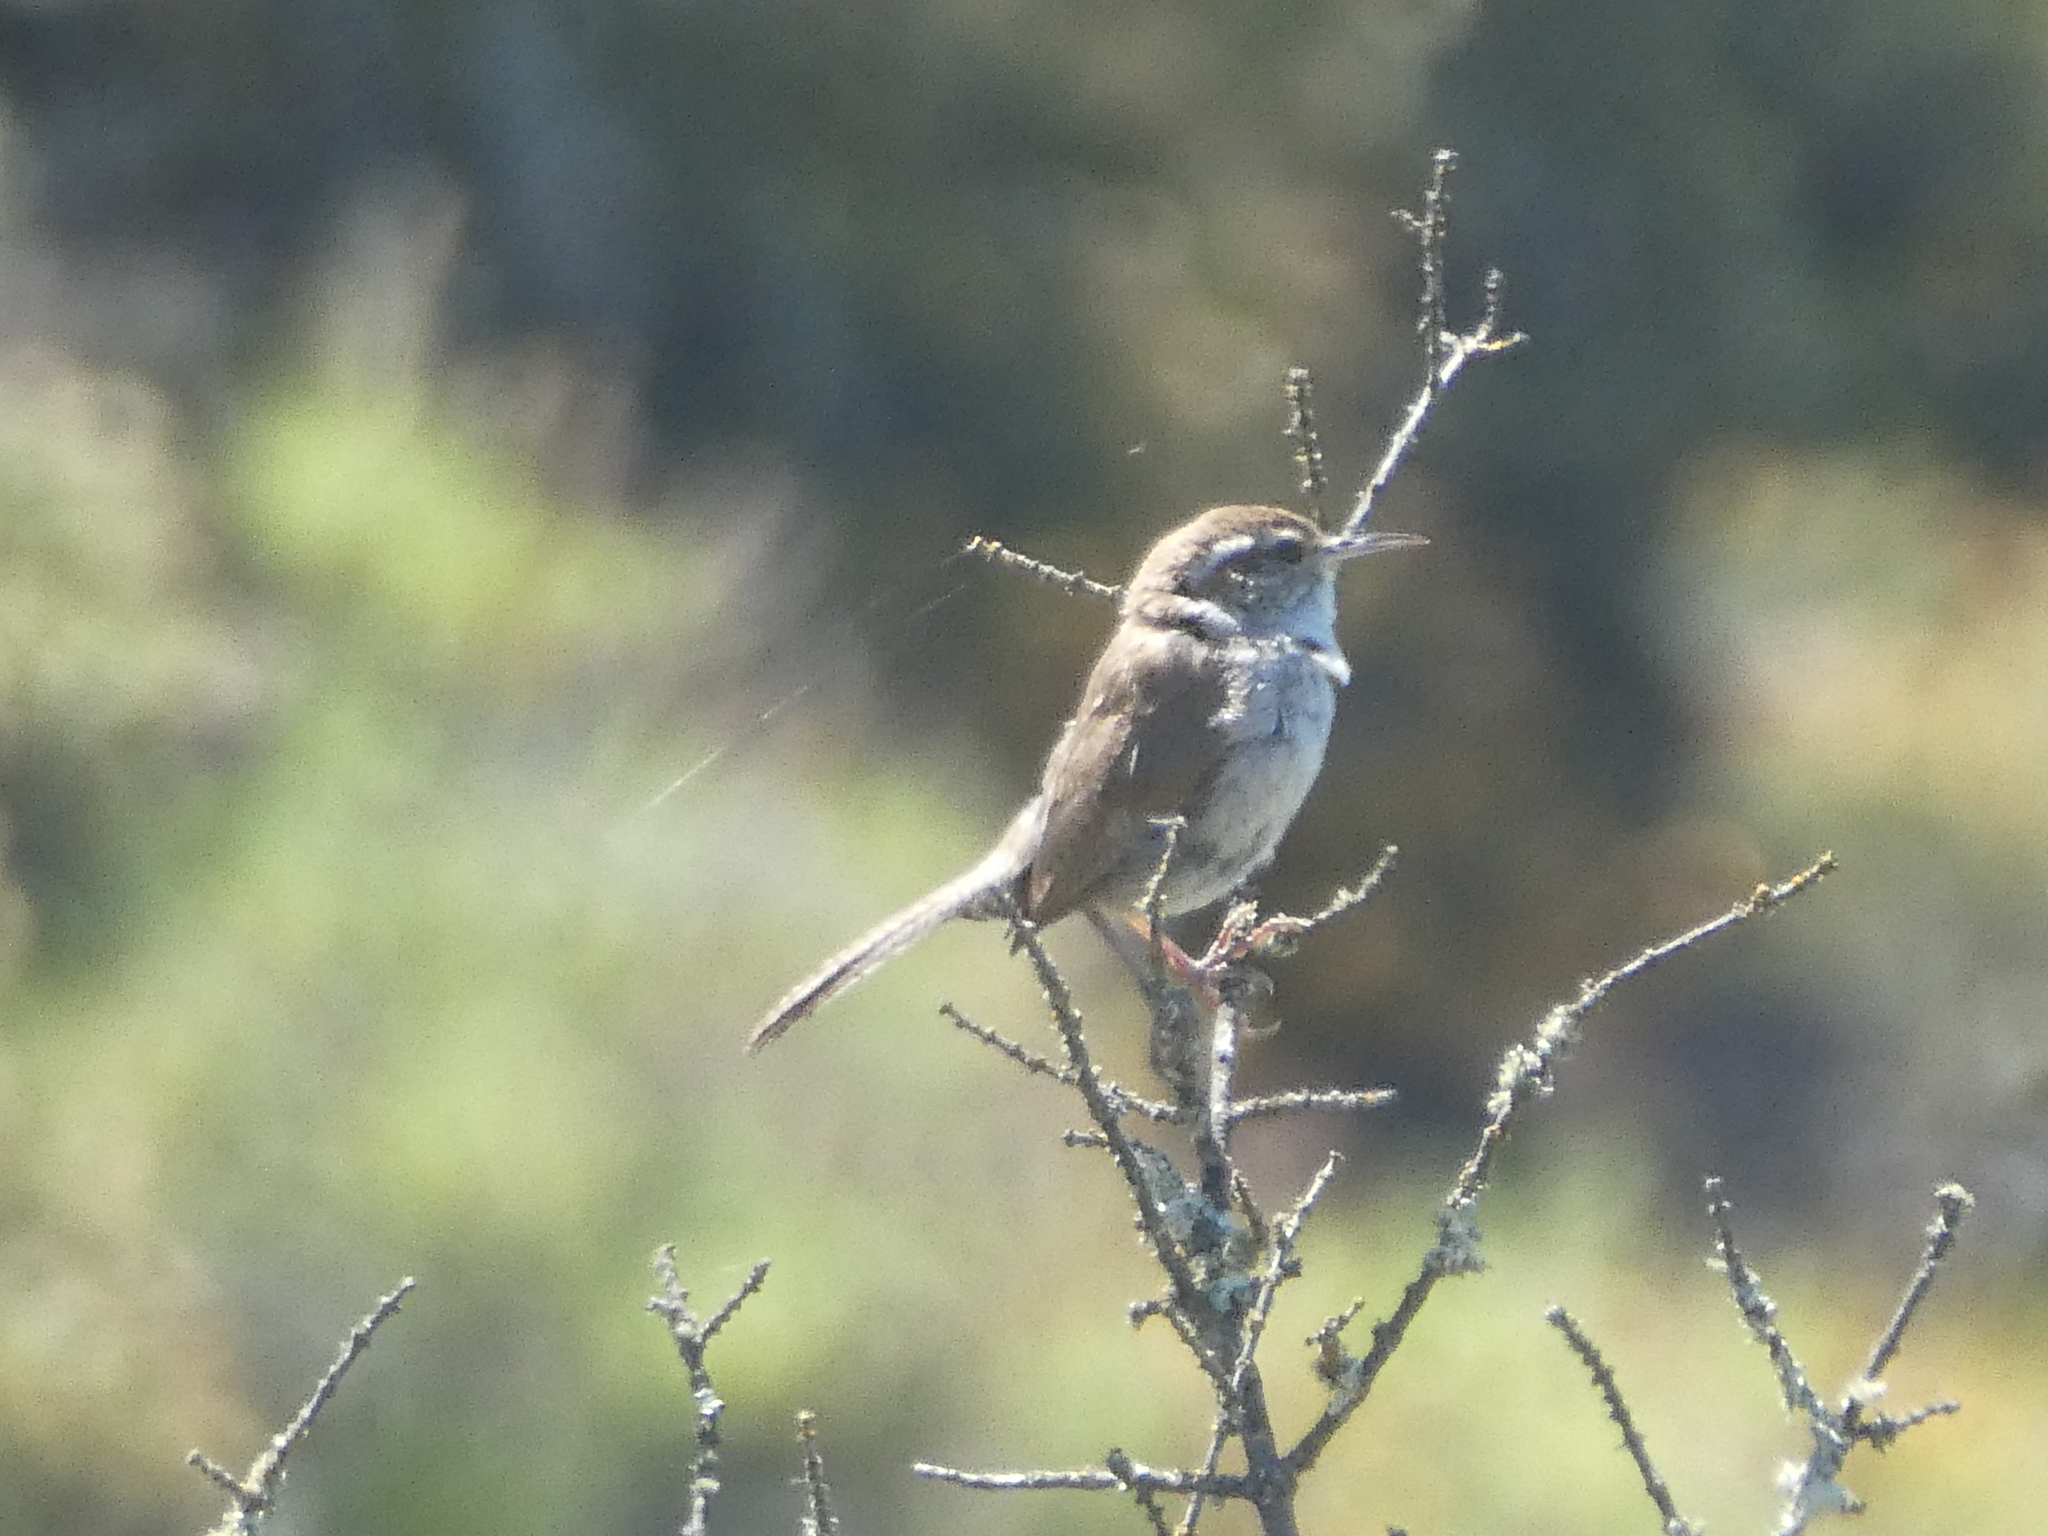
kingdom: Animalia
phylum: Chordata
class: Aves
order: Passeriformes
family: Troglodytidae
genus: Thryomanes
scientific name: Thryomanes bewickii
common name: Bewick's wren
